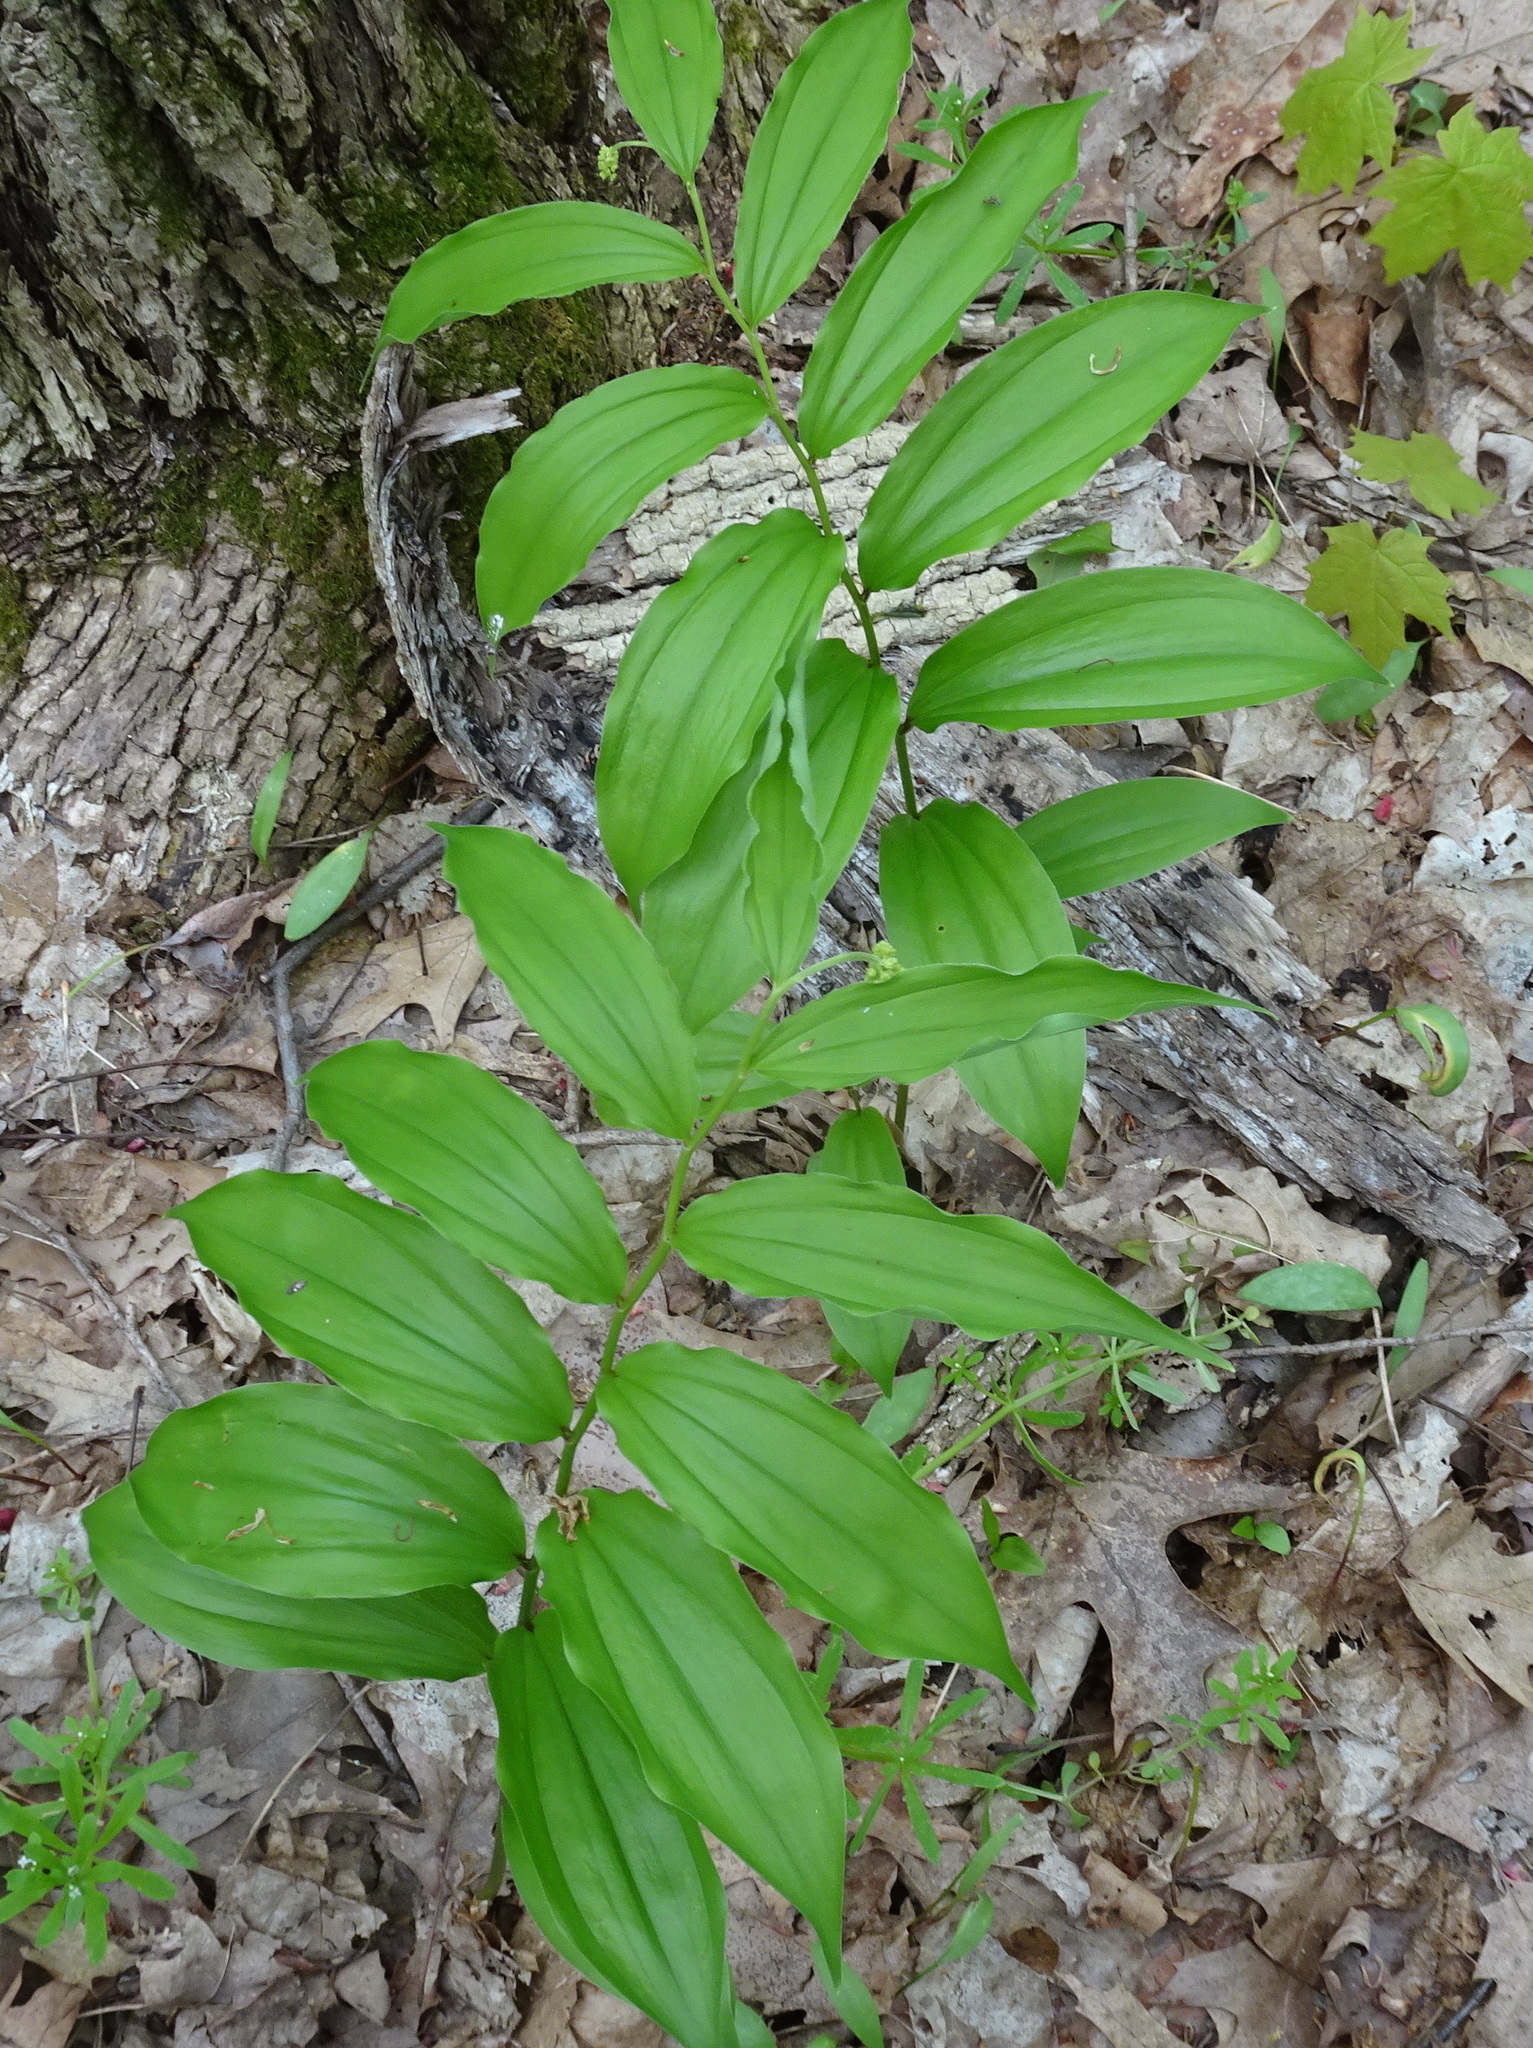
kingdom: Plantae
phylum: Tracheophyta
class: Liliopsida
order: Asparagales
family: Asparagaceae
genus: Maianthemum
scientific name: Maianthemum racemosum
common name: False spikenard
